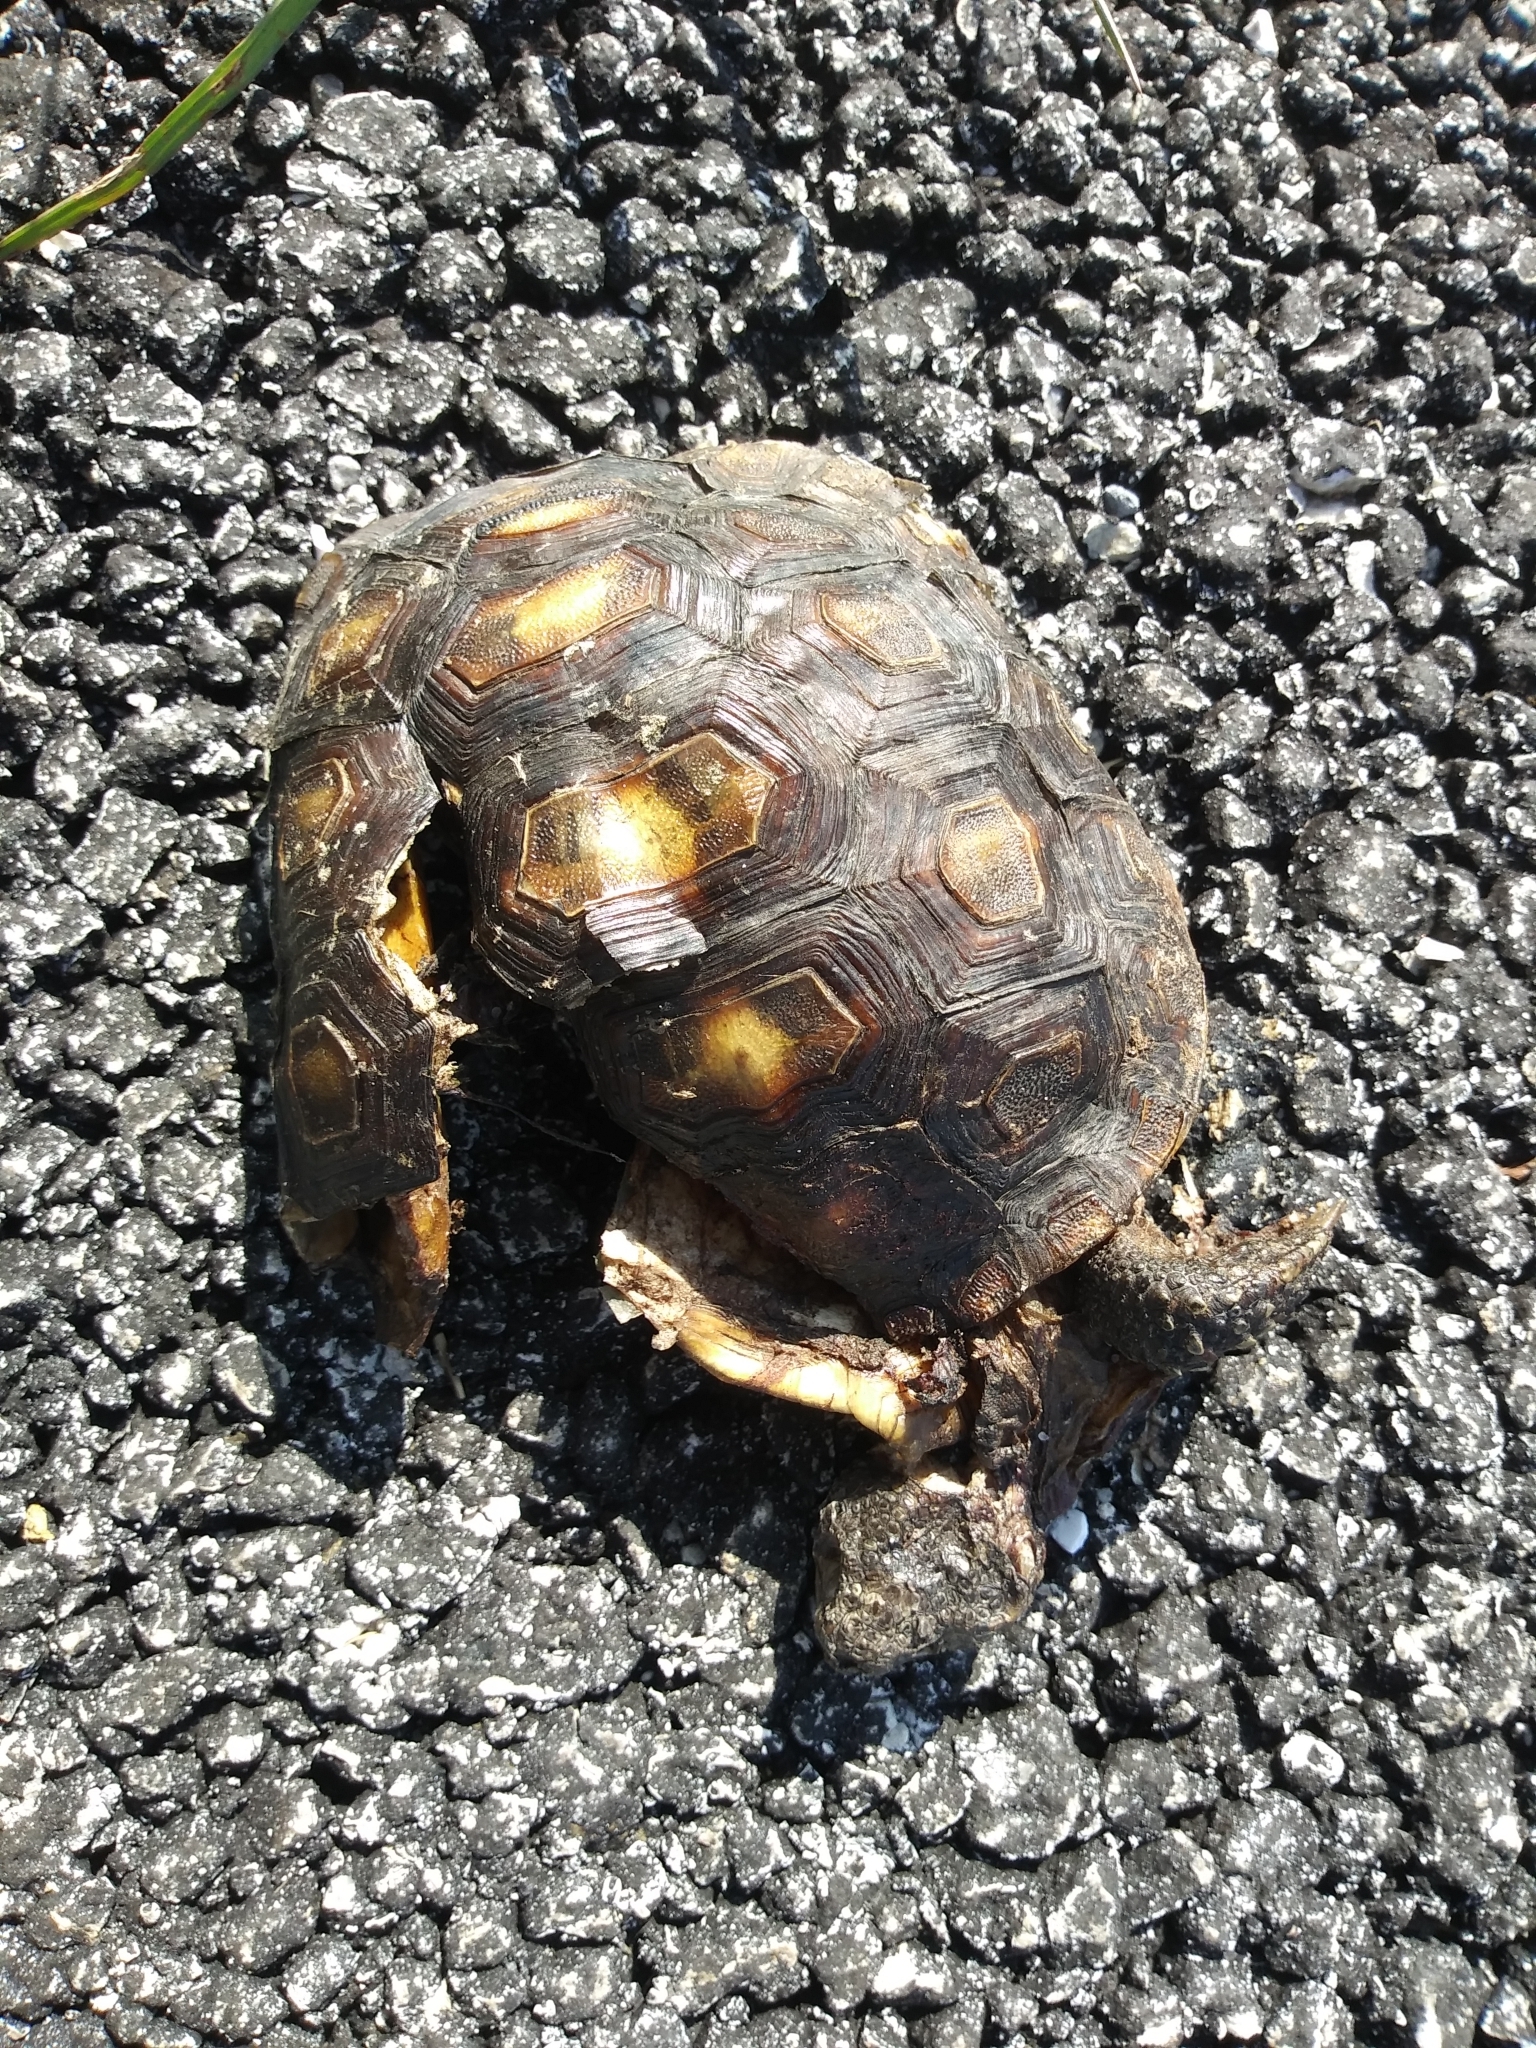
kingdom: Animalia
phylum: Chordata
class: Testudines
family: Testudinidae
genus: Gopherus
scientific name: Gopherus polyphemus
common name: Florida gopher tortoise
